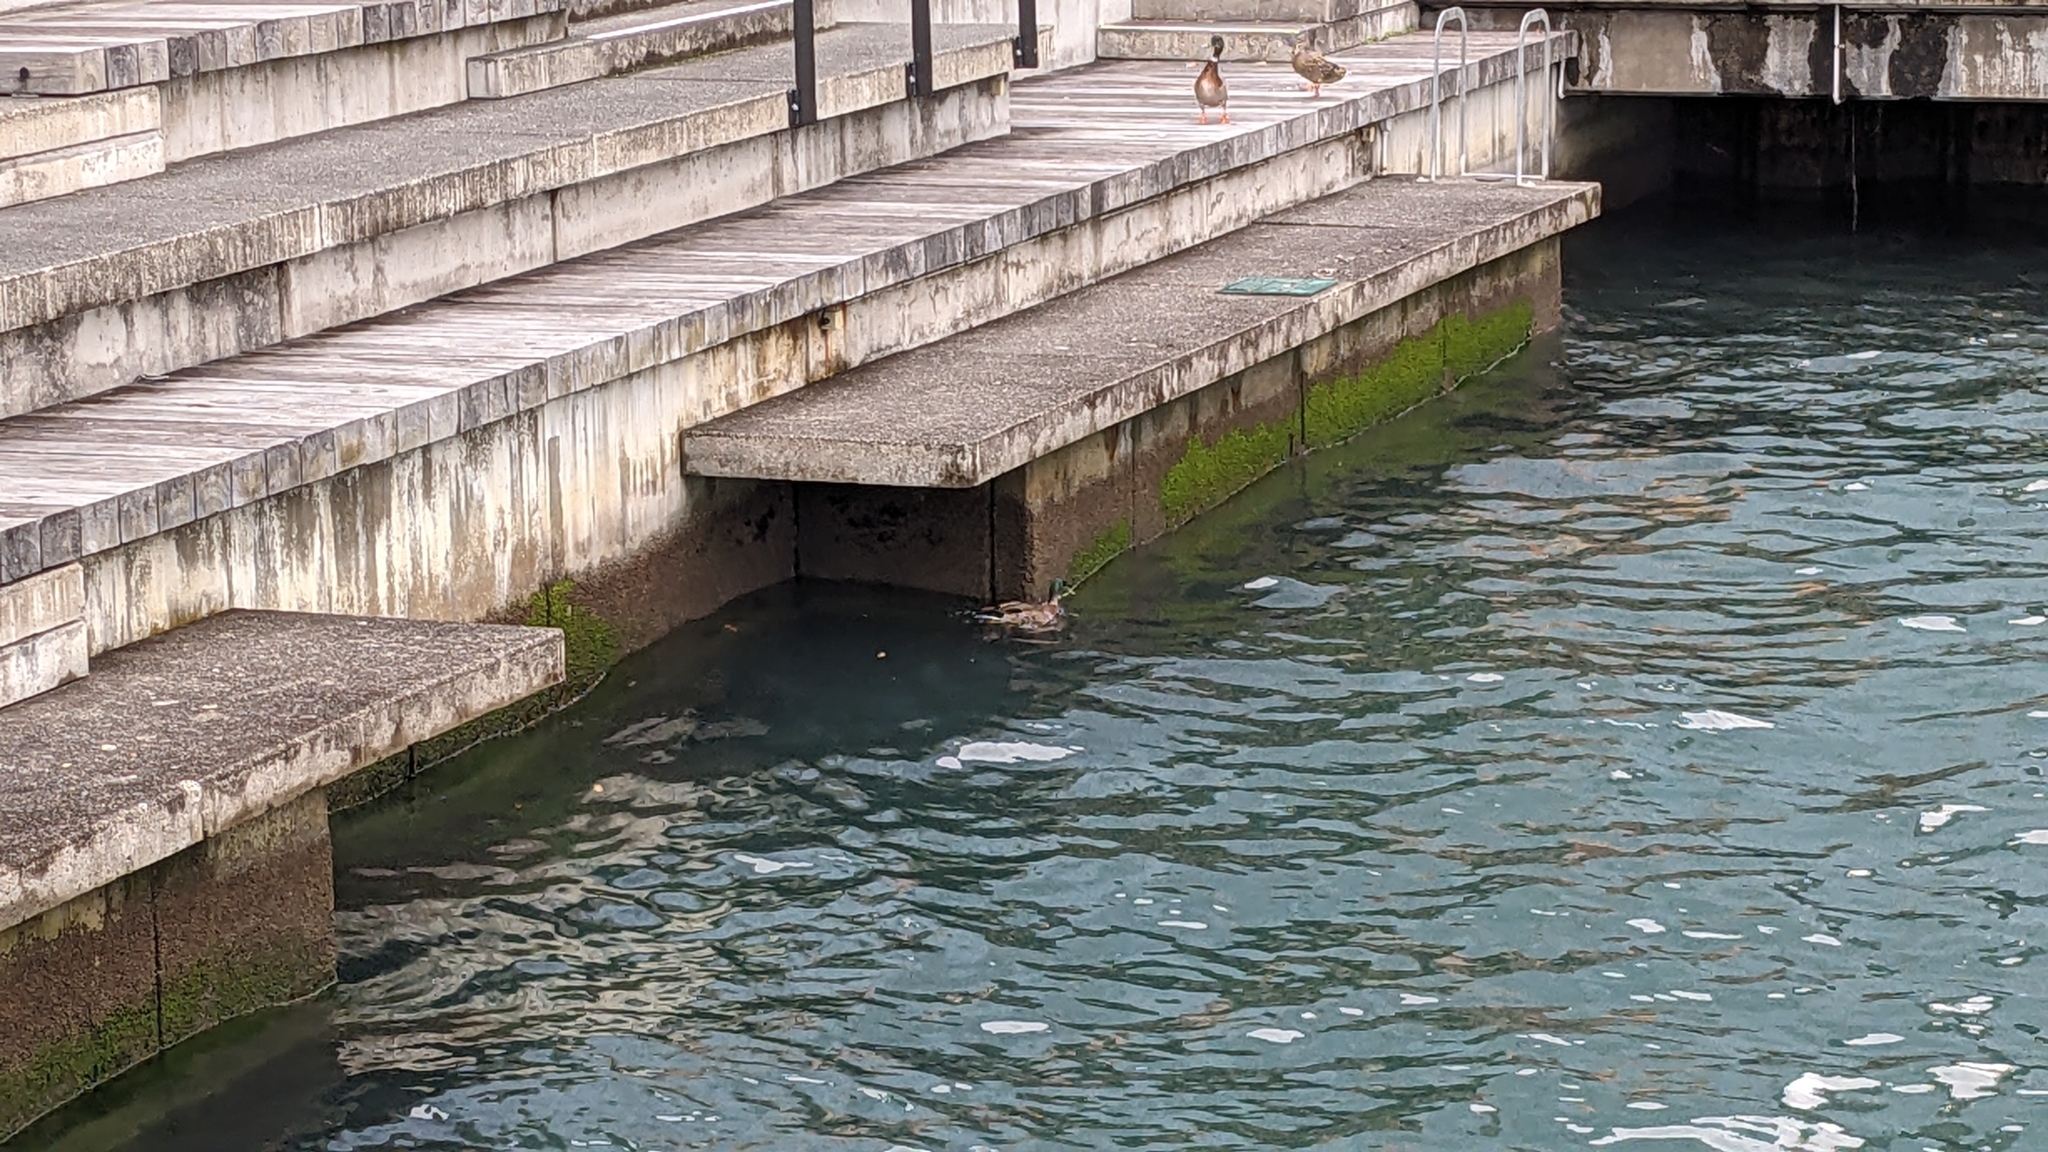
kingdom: Animalia
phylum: Chordata
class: Aves
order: Anseriformes
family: Anatidae
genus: Anas
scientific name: Anas
